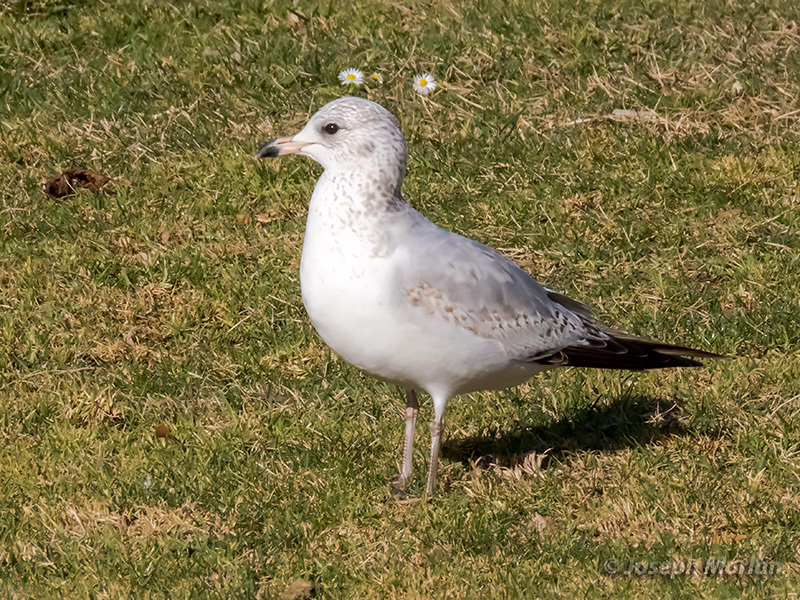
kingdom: Animalia
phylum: Chordata
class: Aves
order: Charadriiformes
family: Laridae
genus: Larus
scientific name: Larus delawarensis
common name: Ring-billed gull
